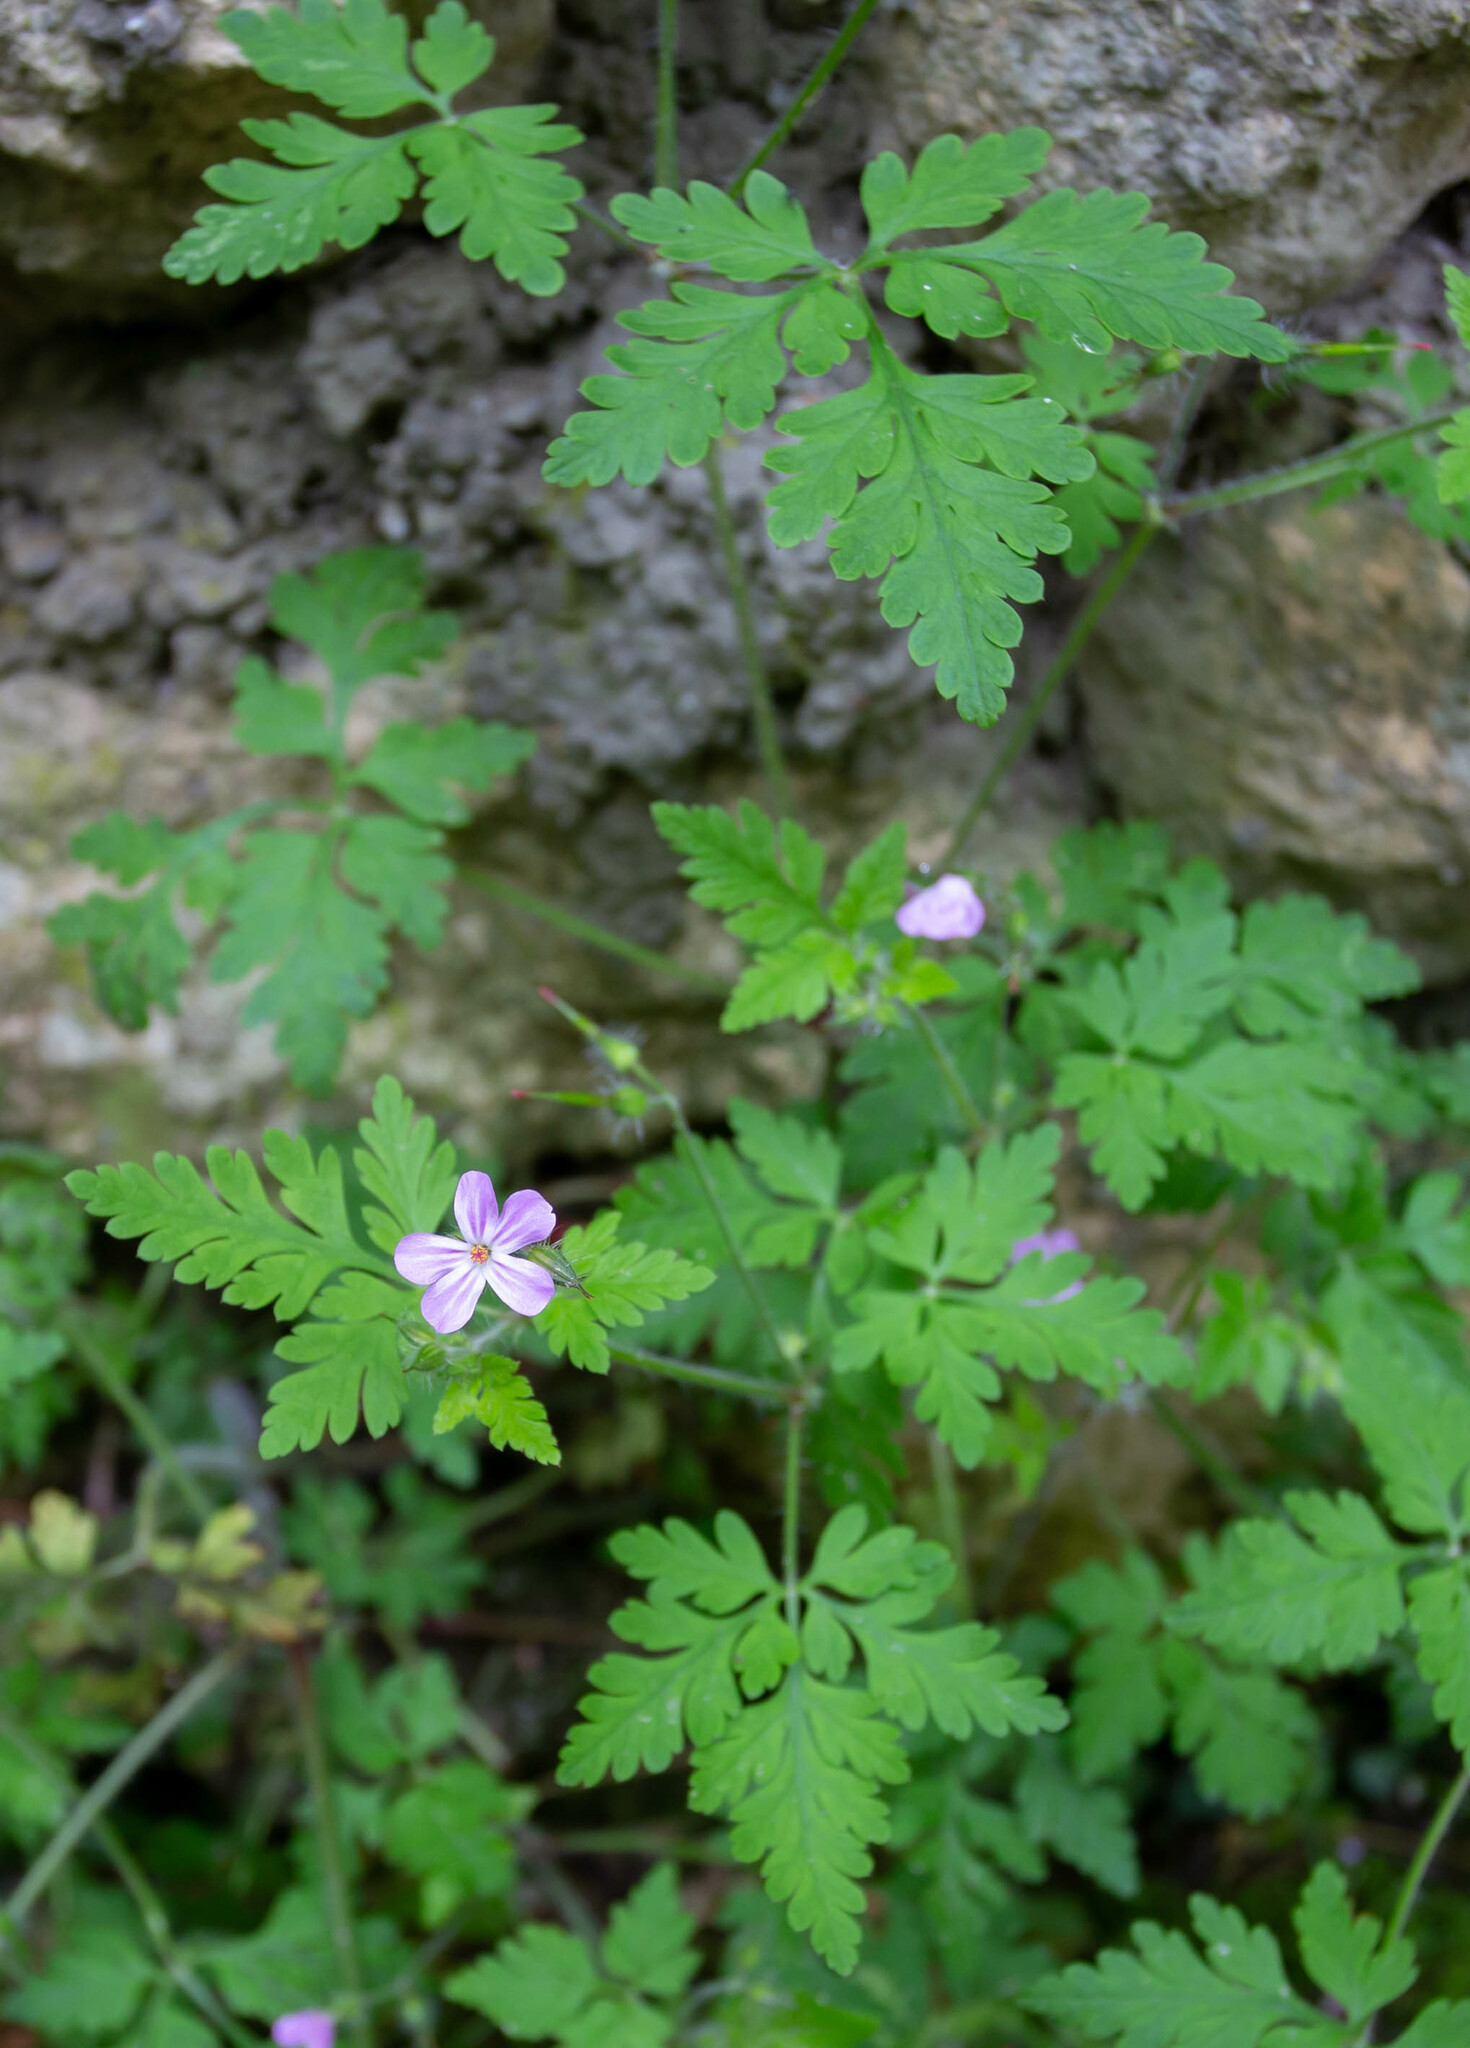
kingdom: Plantae
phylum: Tracheophyta
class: Magnoliopsida
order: Geraniales
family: Geraniaceae
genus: Geranium
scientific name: Geranium robertianum
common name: Herb-robert
